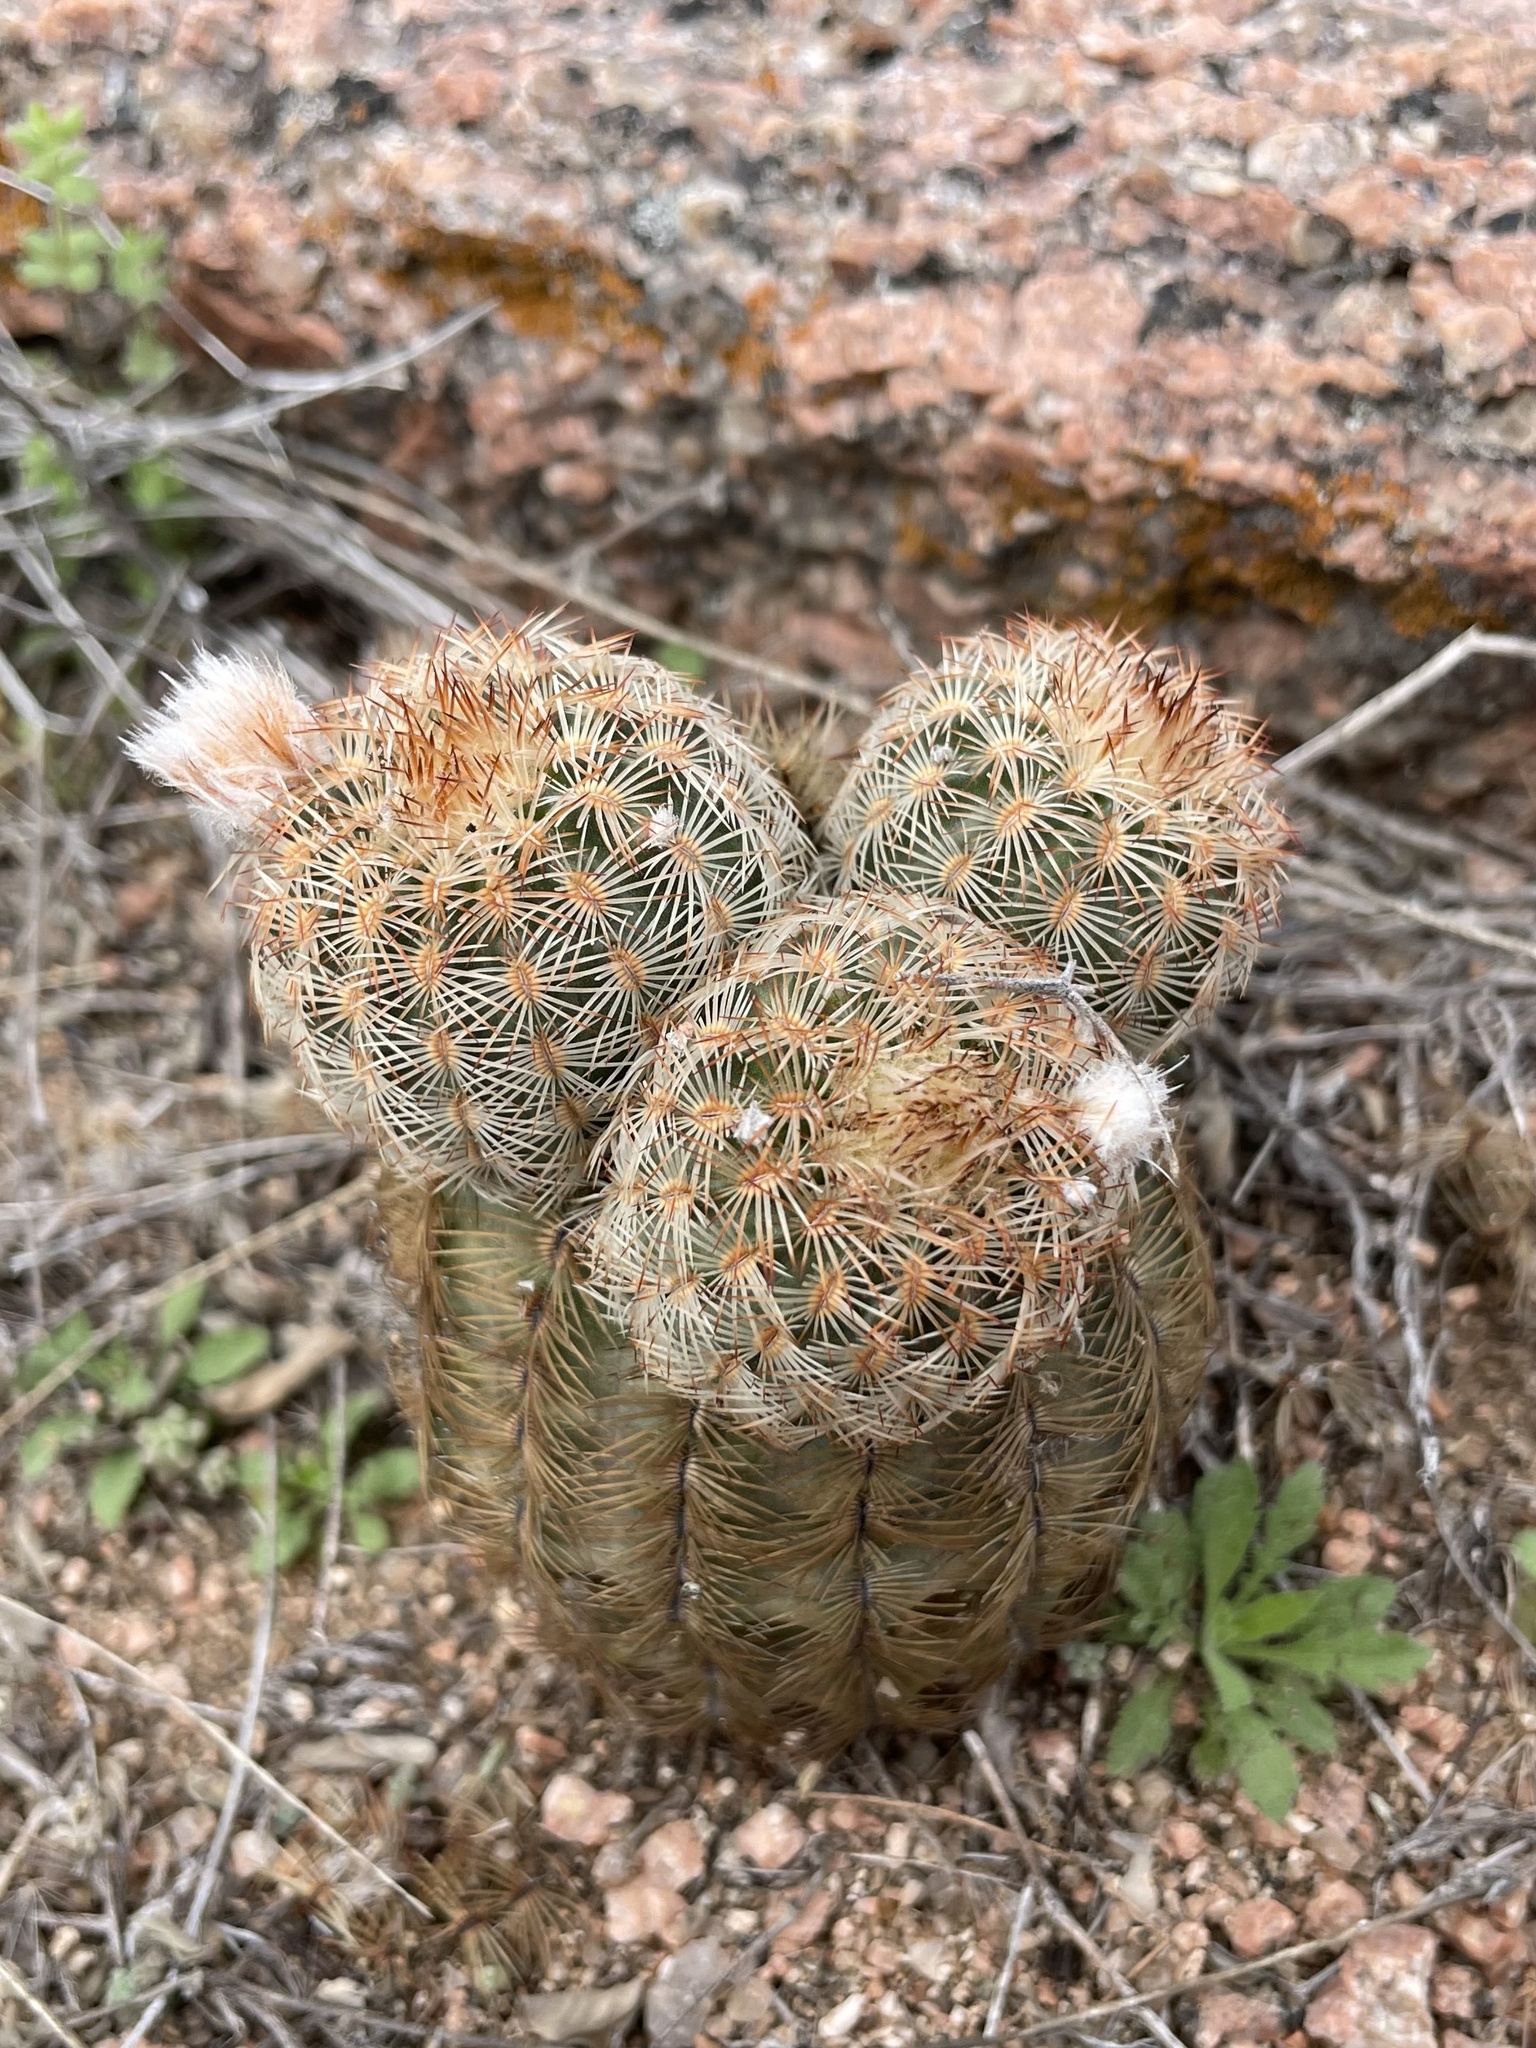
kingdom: Plantae
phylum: Tracheophyta
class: Magnoliopsida
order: Caryophyllales
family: Cactaceae
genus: Echinocereus
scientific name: Echinocereus reichenbachii
